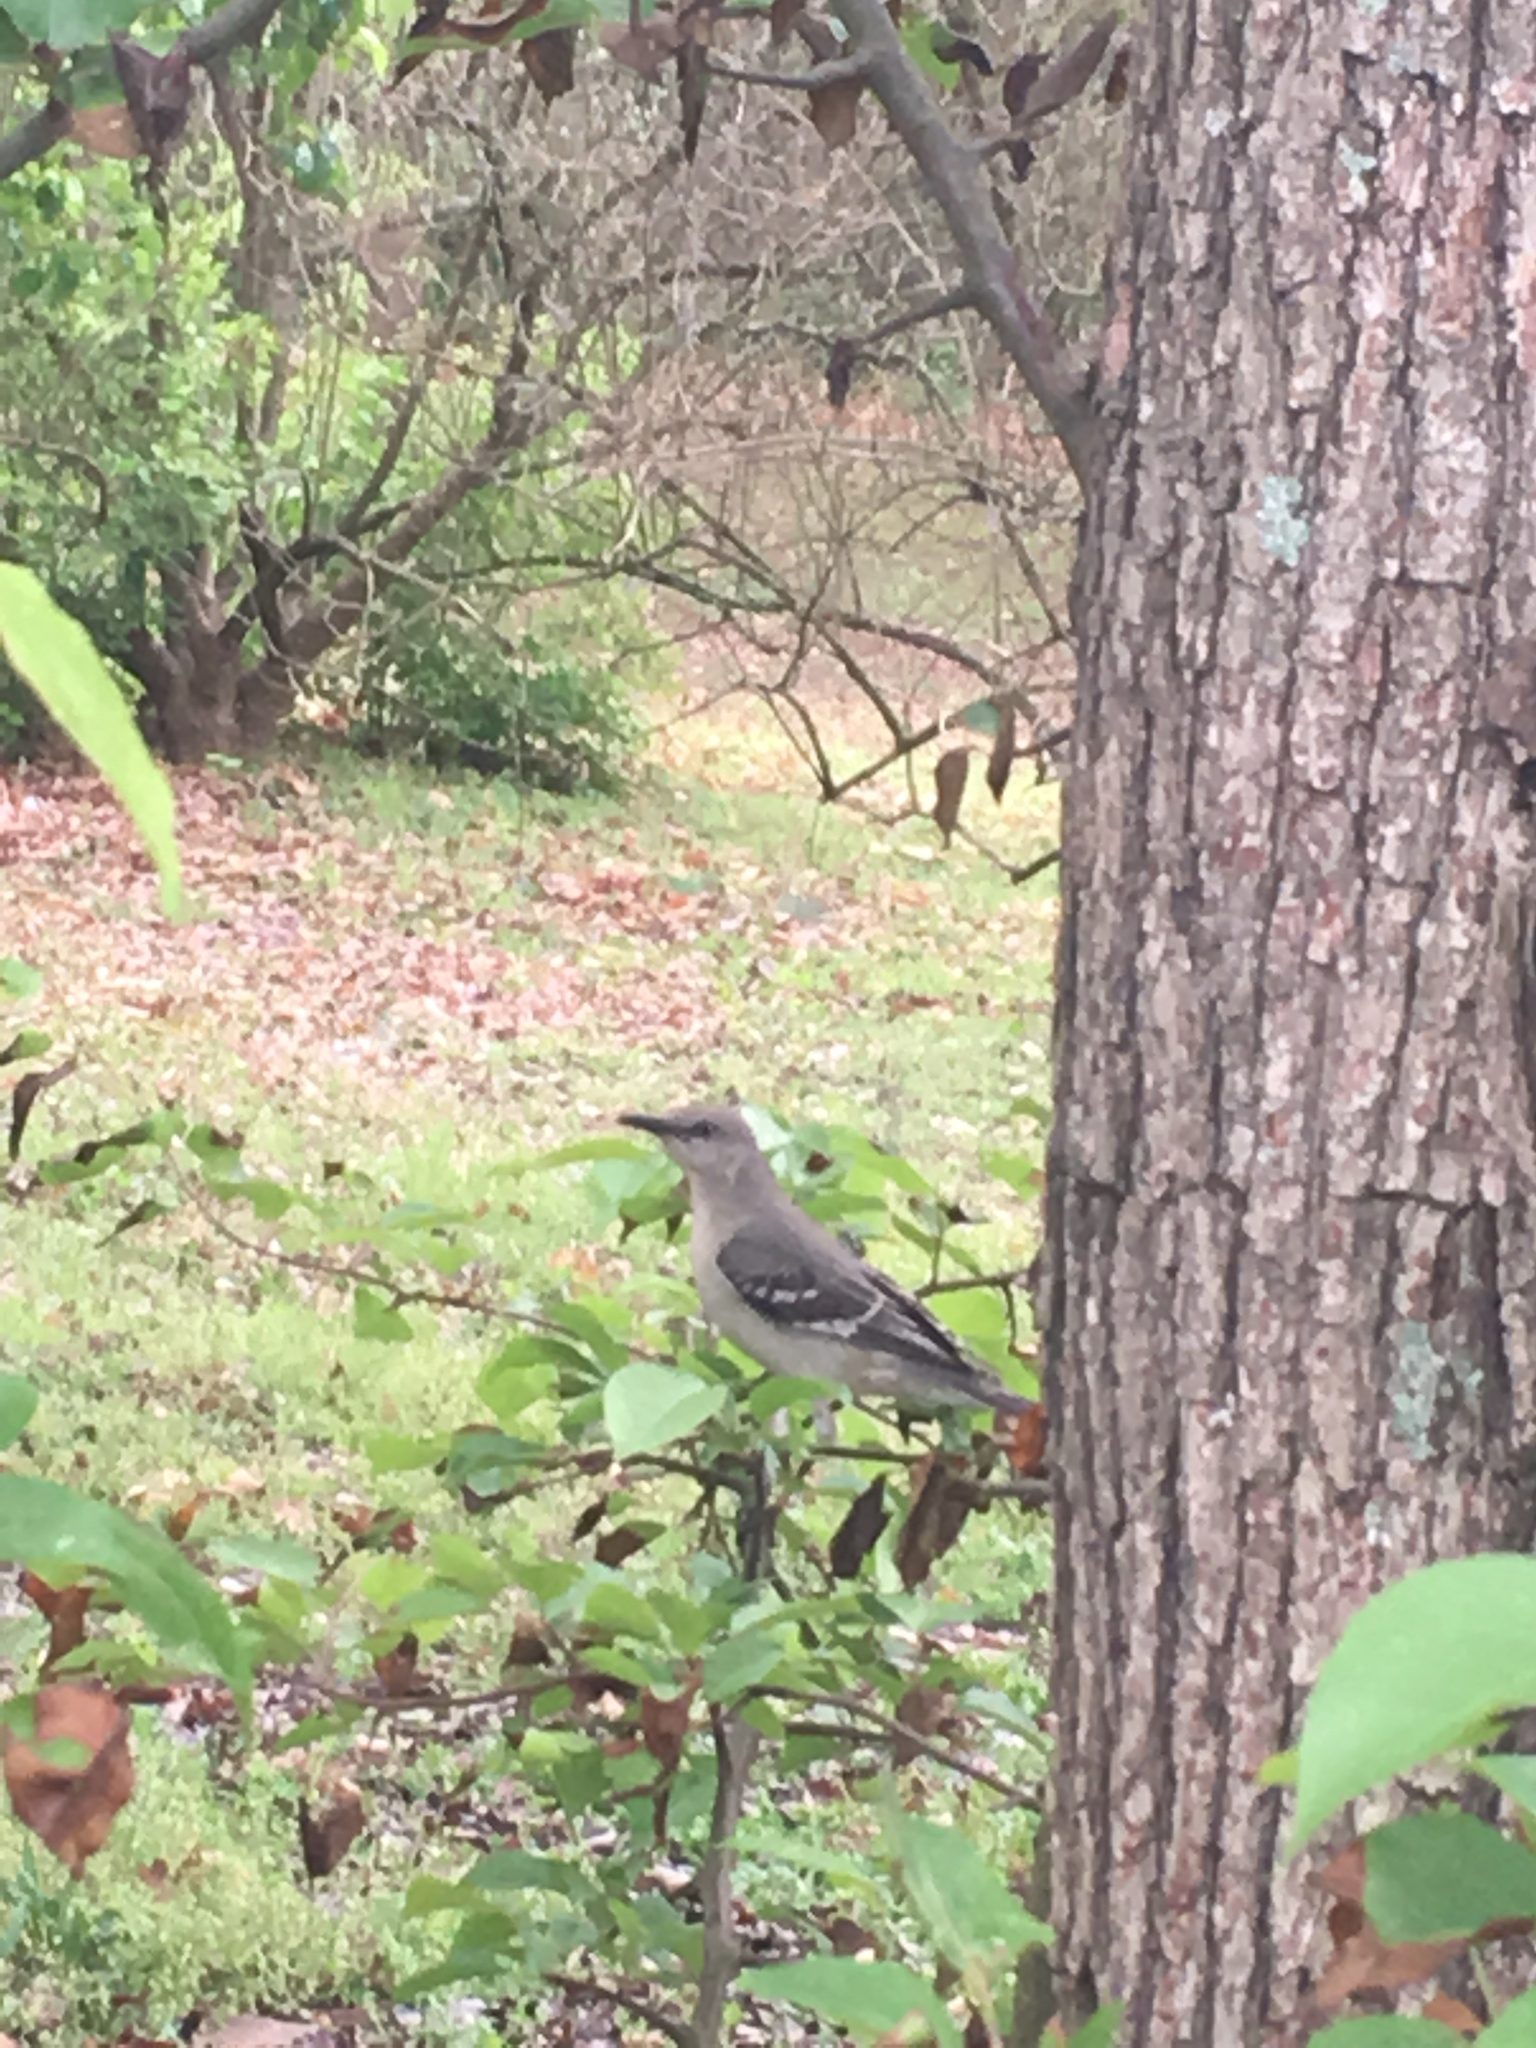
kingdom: Animalia
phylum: Chordata
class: Aves
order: Passeriformes
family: Mimidae
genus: Mimus
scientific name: Mimus polyglottos
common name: Northern mockingbird
